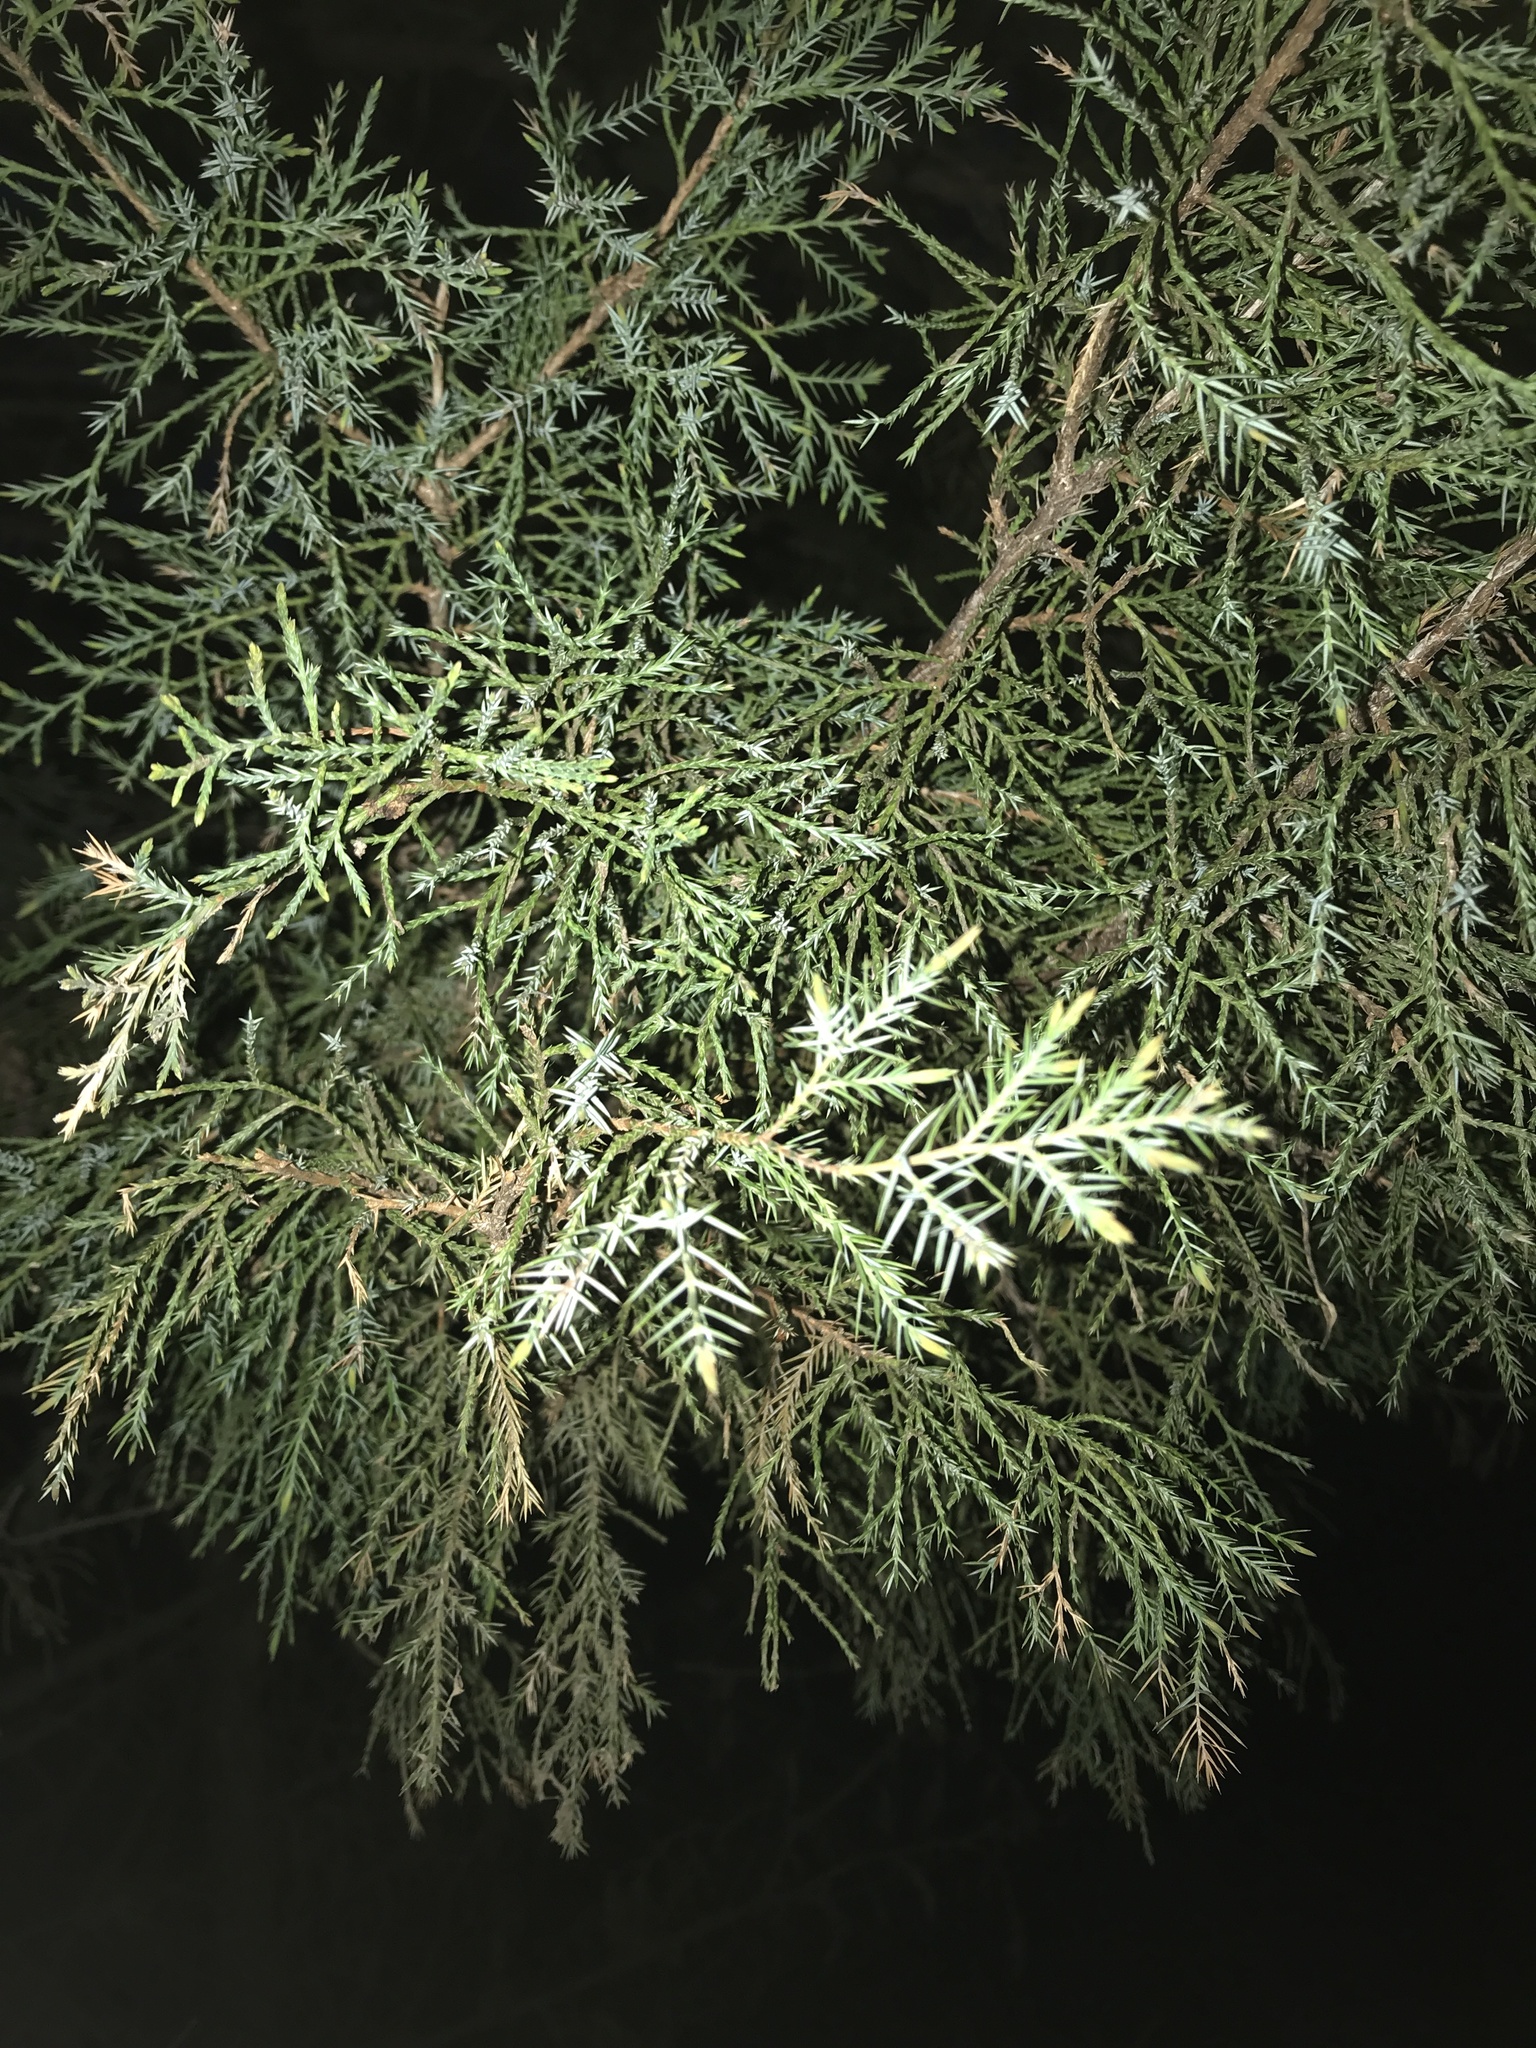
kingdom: Plantae
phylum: Tracheophyta
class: Pinopsida
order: Pinales
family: Cupressaceae
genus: Juniperus
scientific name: Juniperus virginiana
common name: Red juniper
